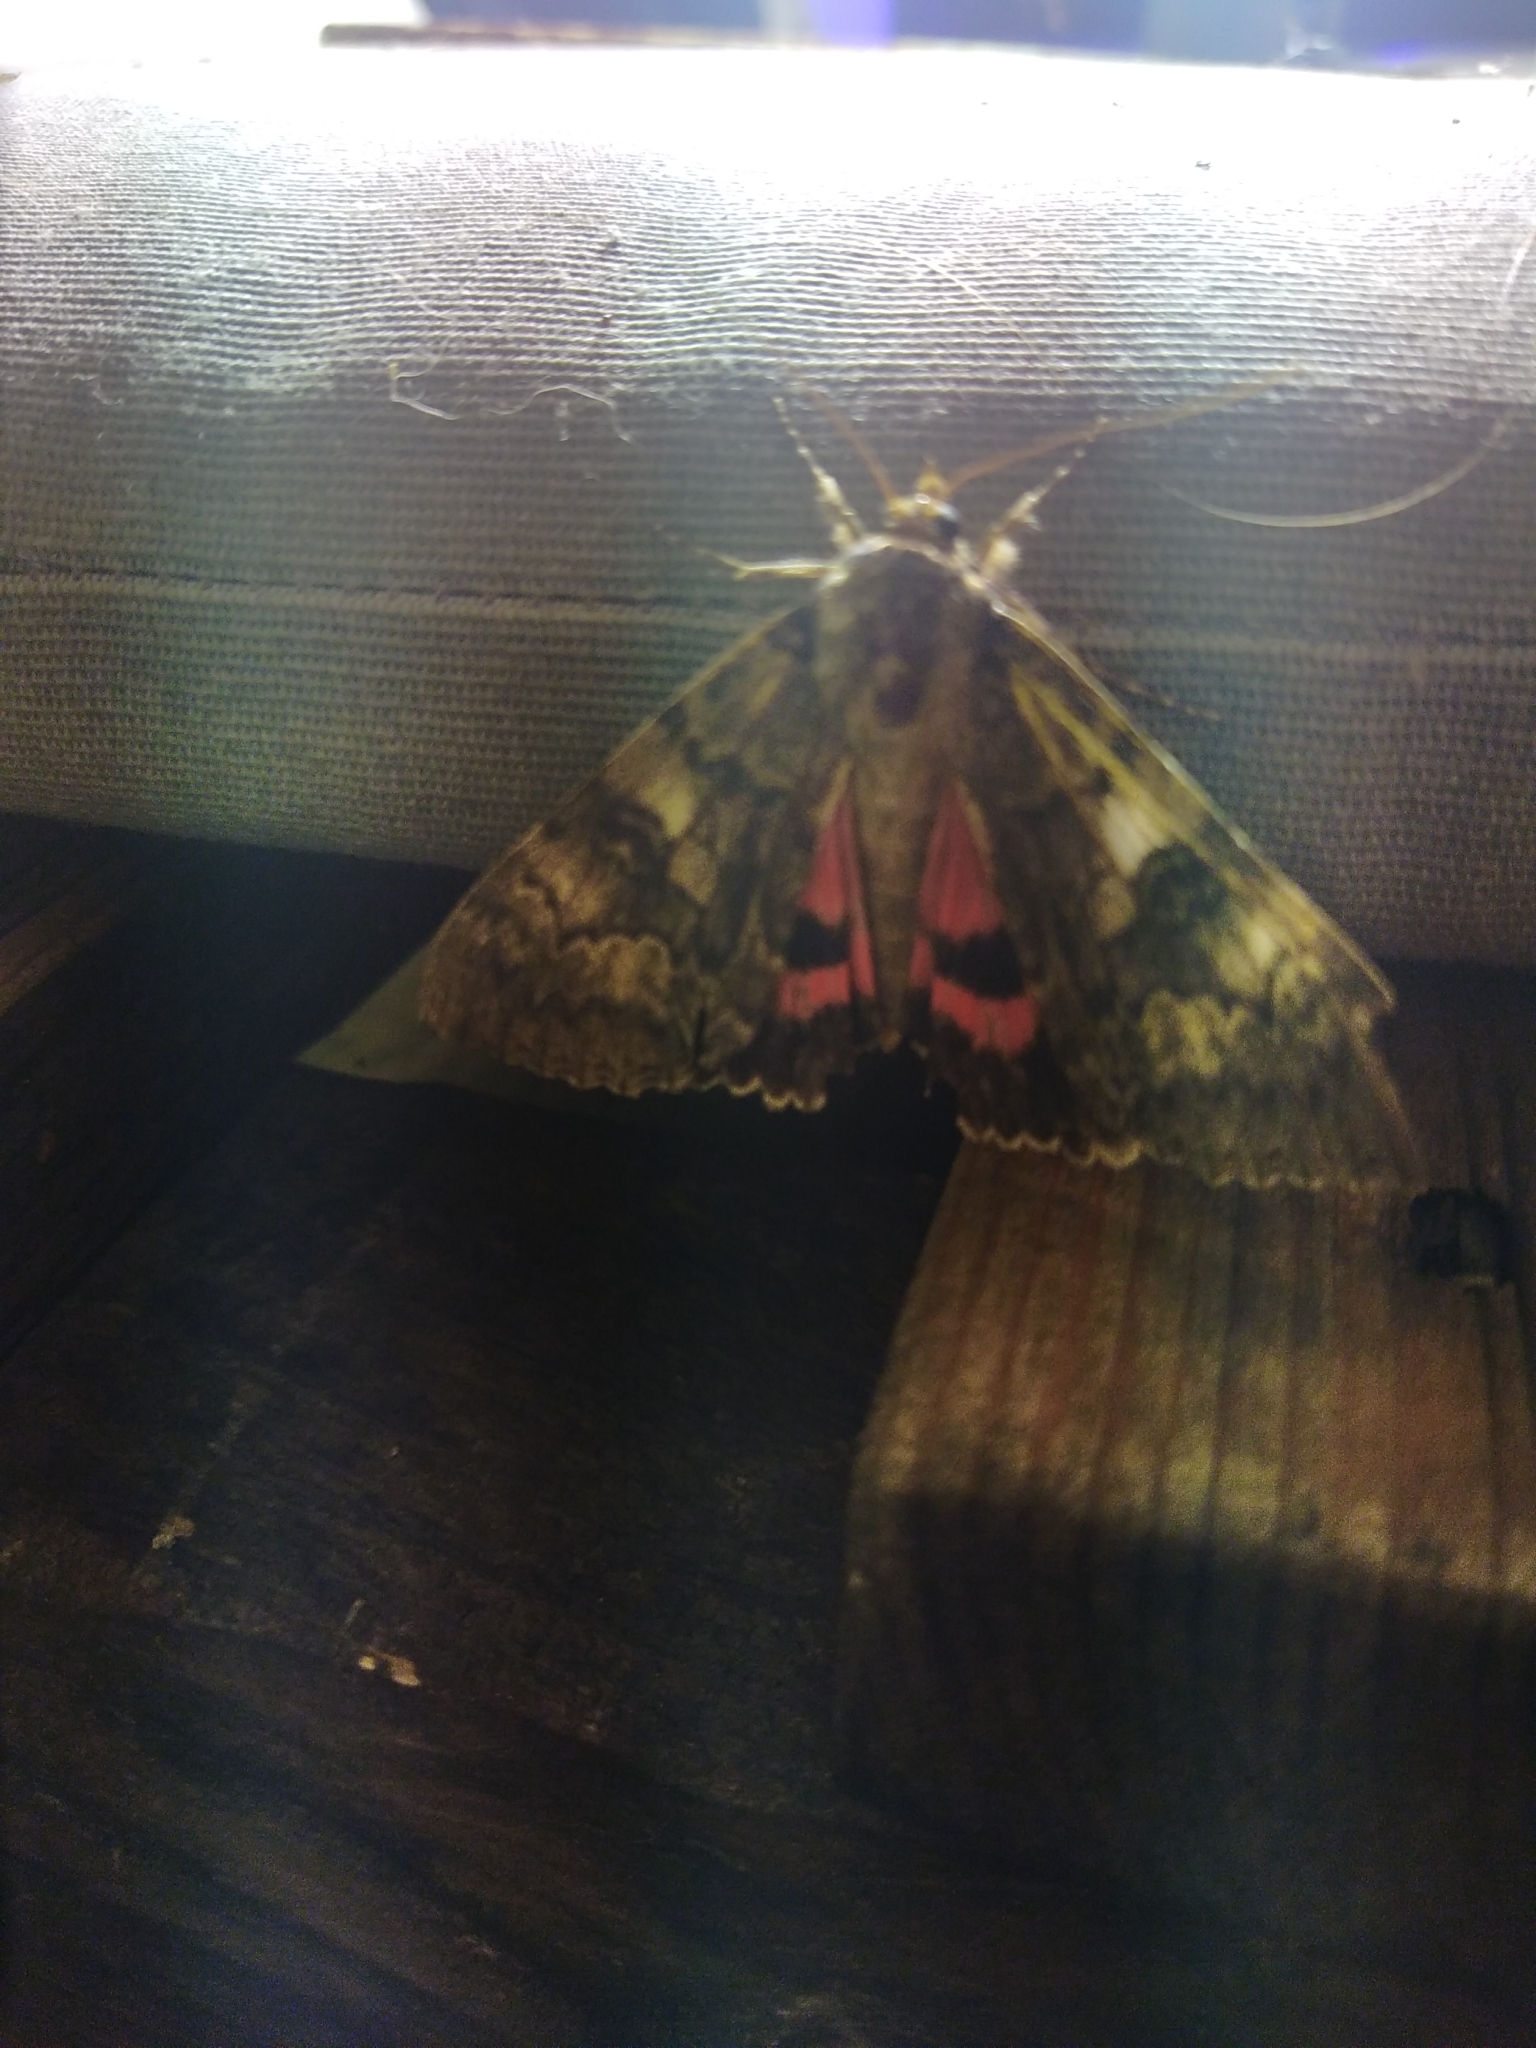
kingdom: Animalia
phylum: Arthropoda
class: Insecta
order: Lepidoptera
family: Erebidae
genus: Catocala
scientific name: Catocala nupta
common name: Red underwing
